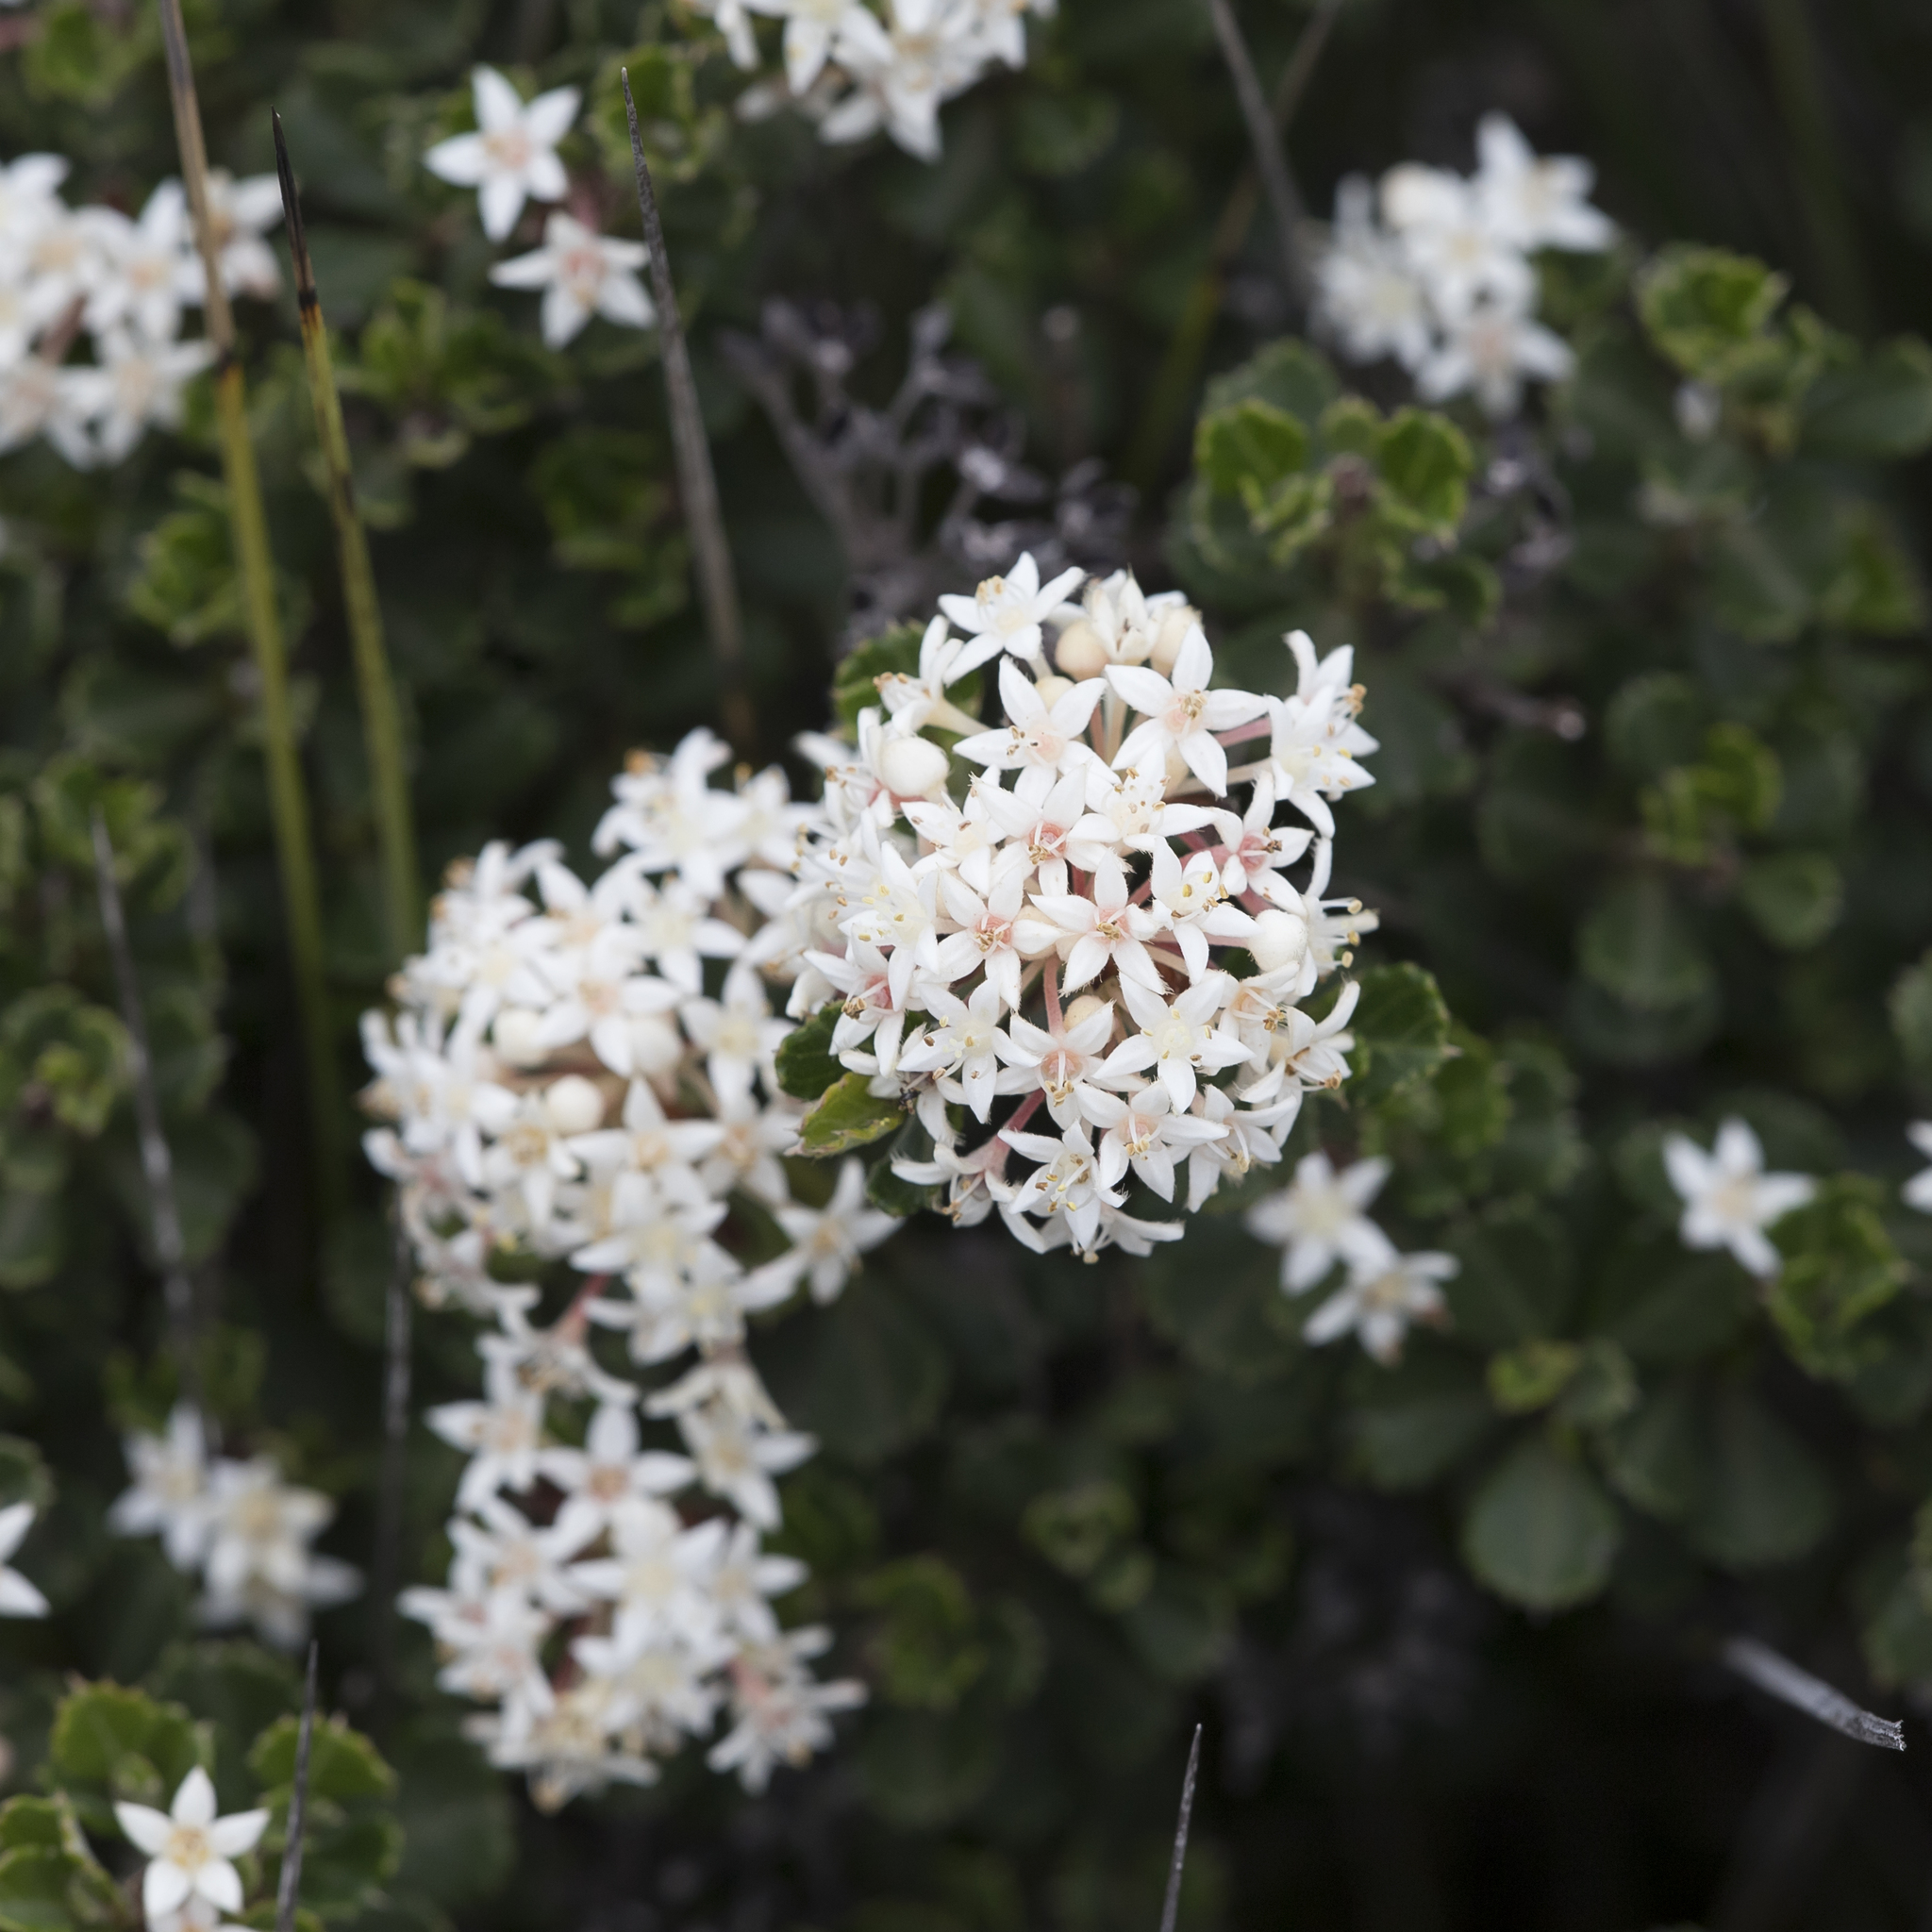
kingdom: Plantae
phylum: Tracheophyta
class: Magnoliopsida
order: Rosales
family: Rhamnaceae
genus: Pomaderris
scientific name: Pomaderris obcordata
